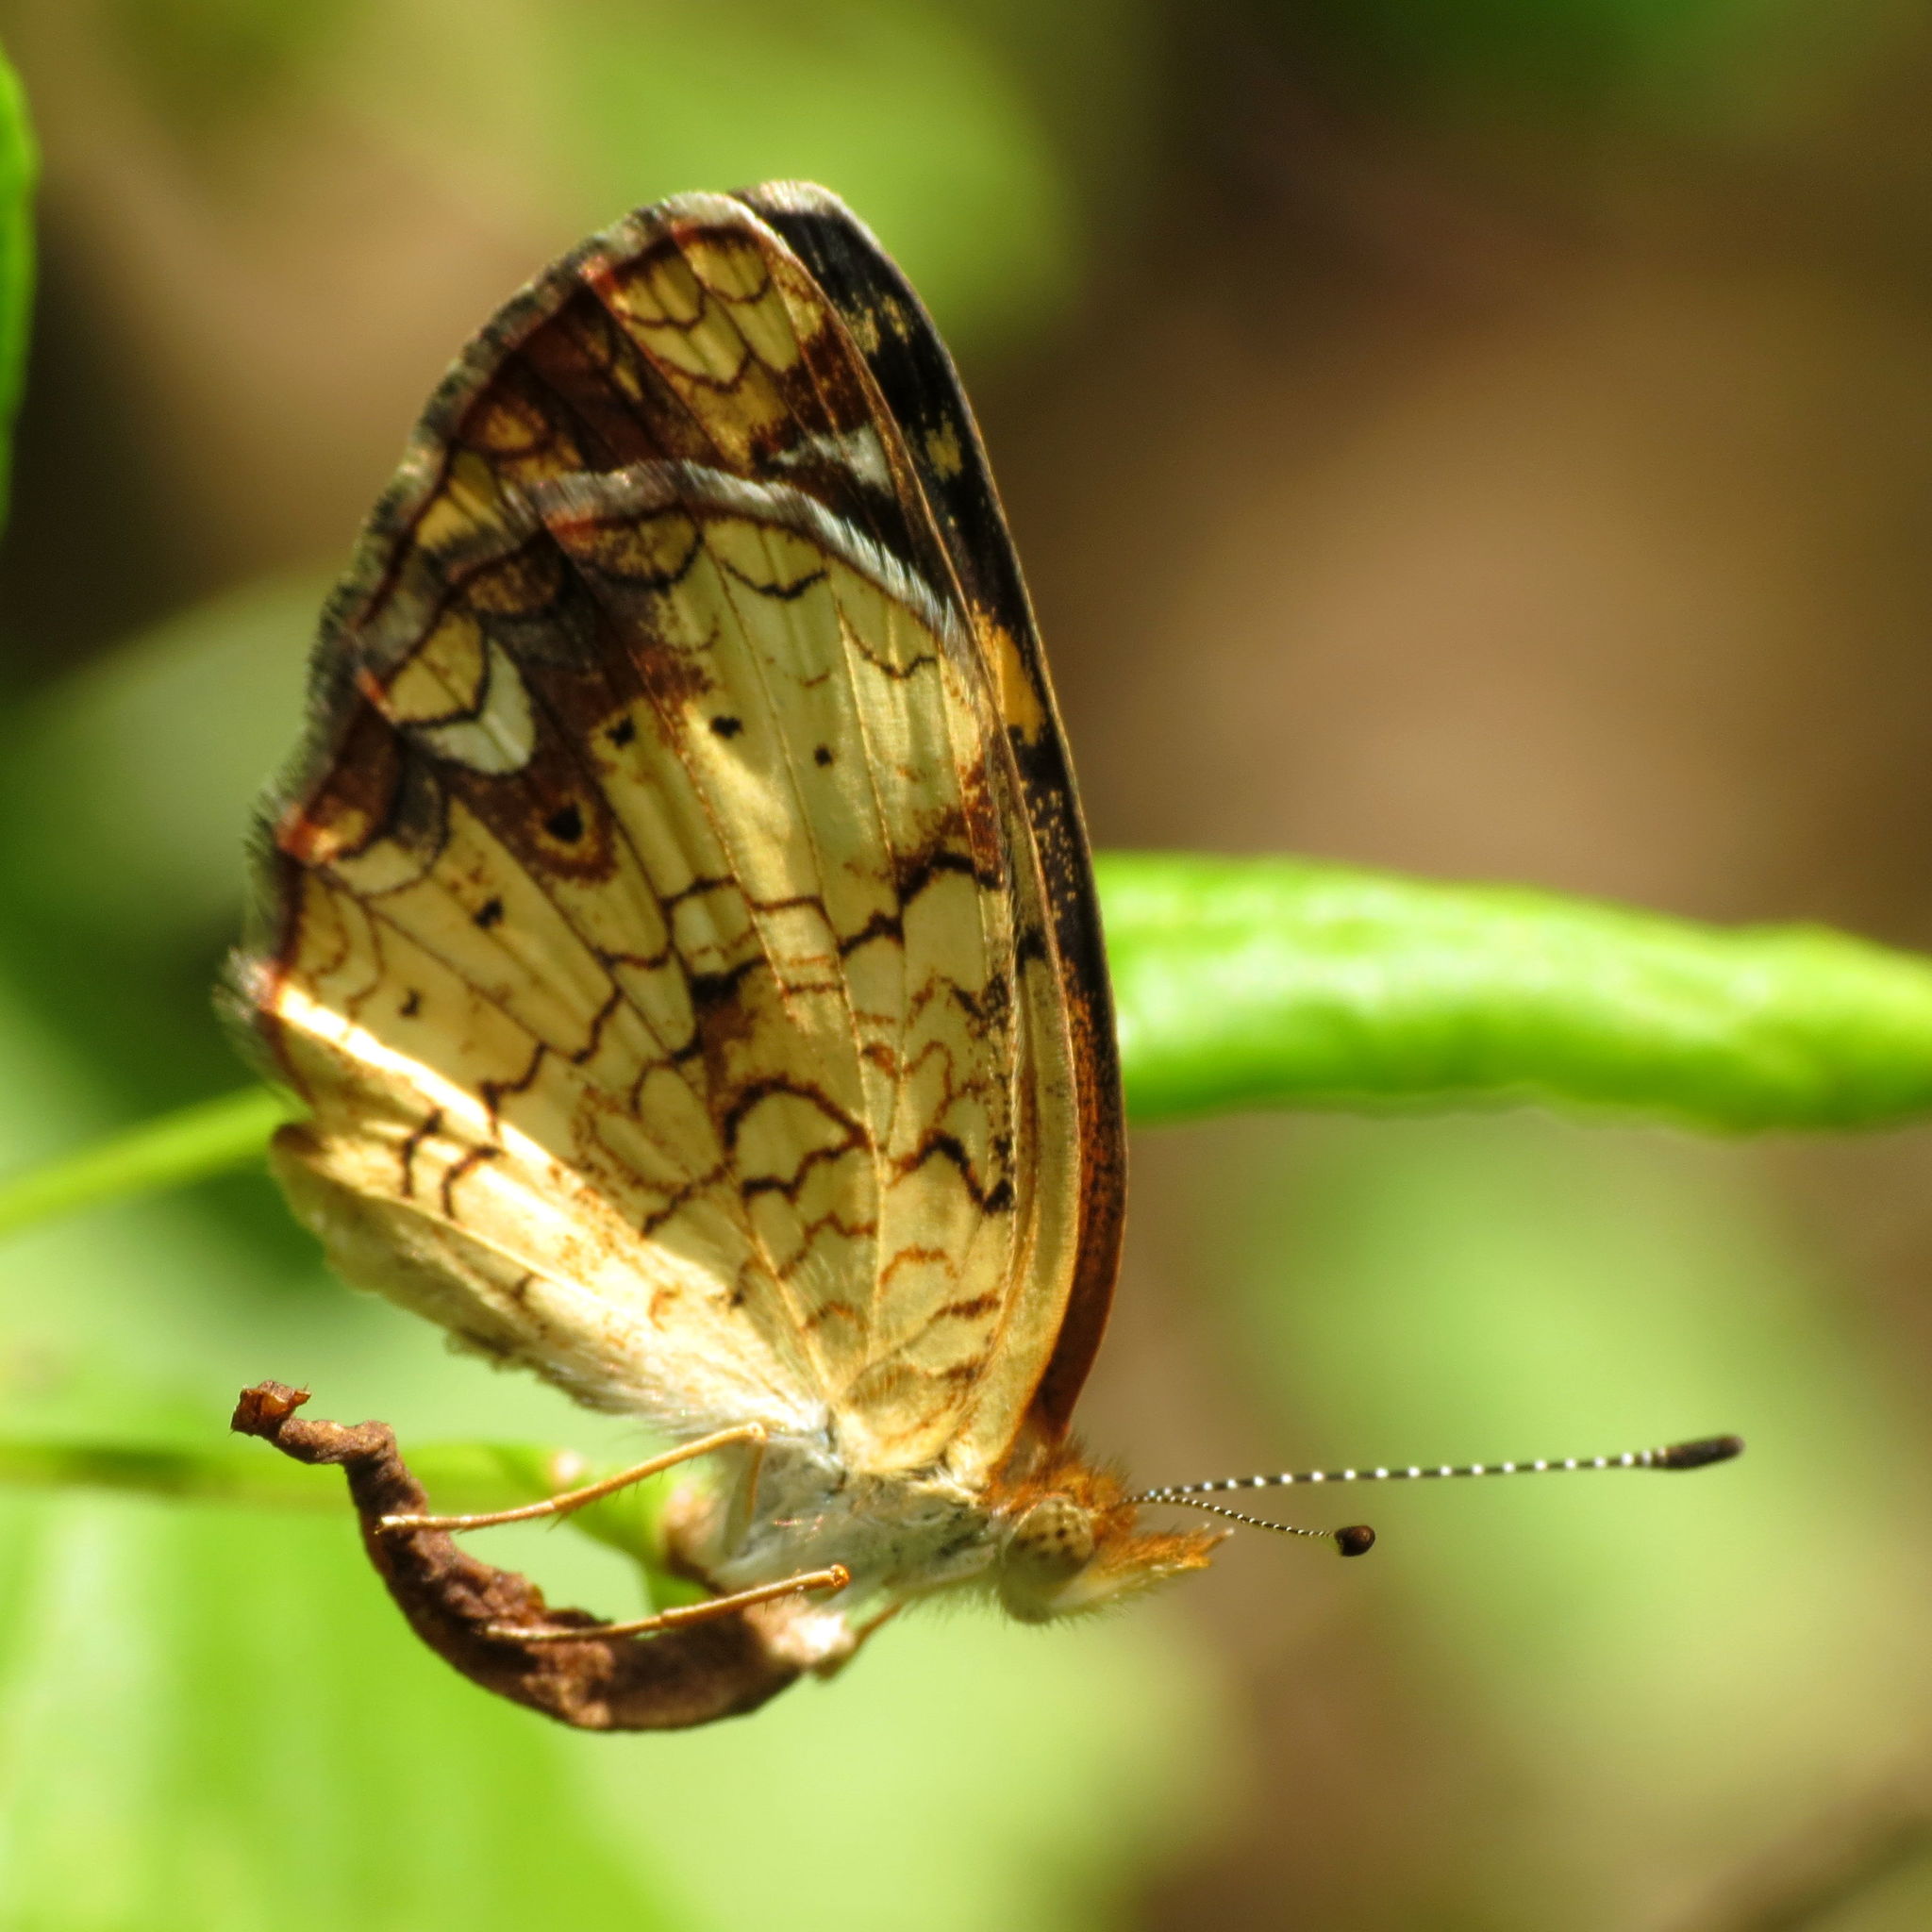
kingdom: Animalia
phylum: Arthropoda
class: Insecta
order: Lepidoptera
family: Nymphalidae
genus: Phyciodes
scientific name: Phyciodes tharos
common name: Pearl crescent
